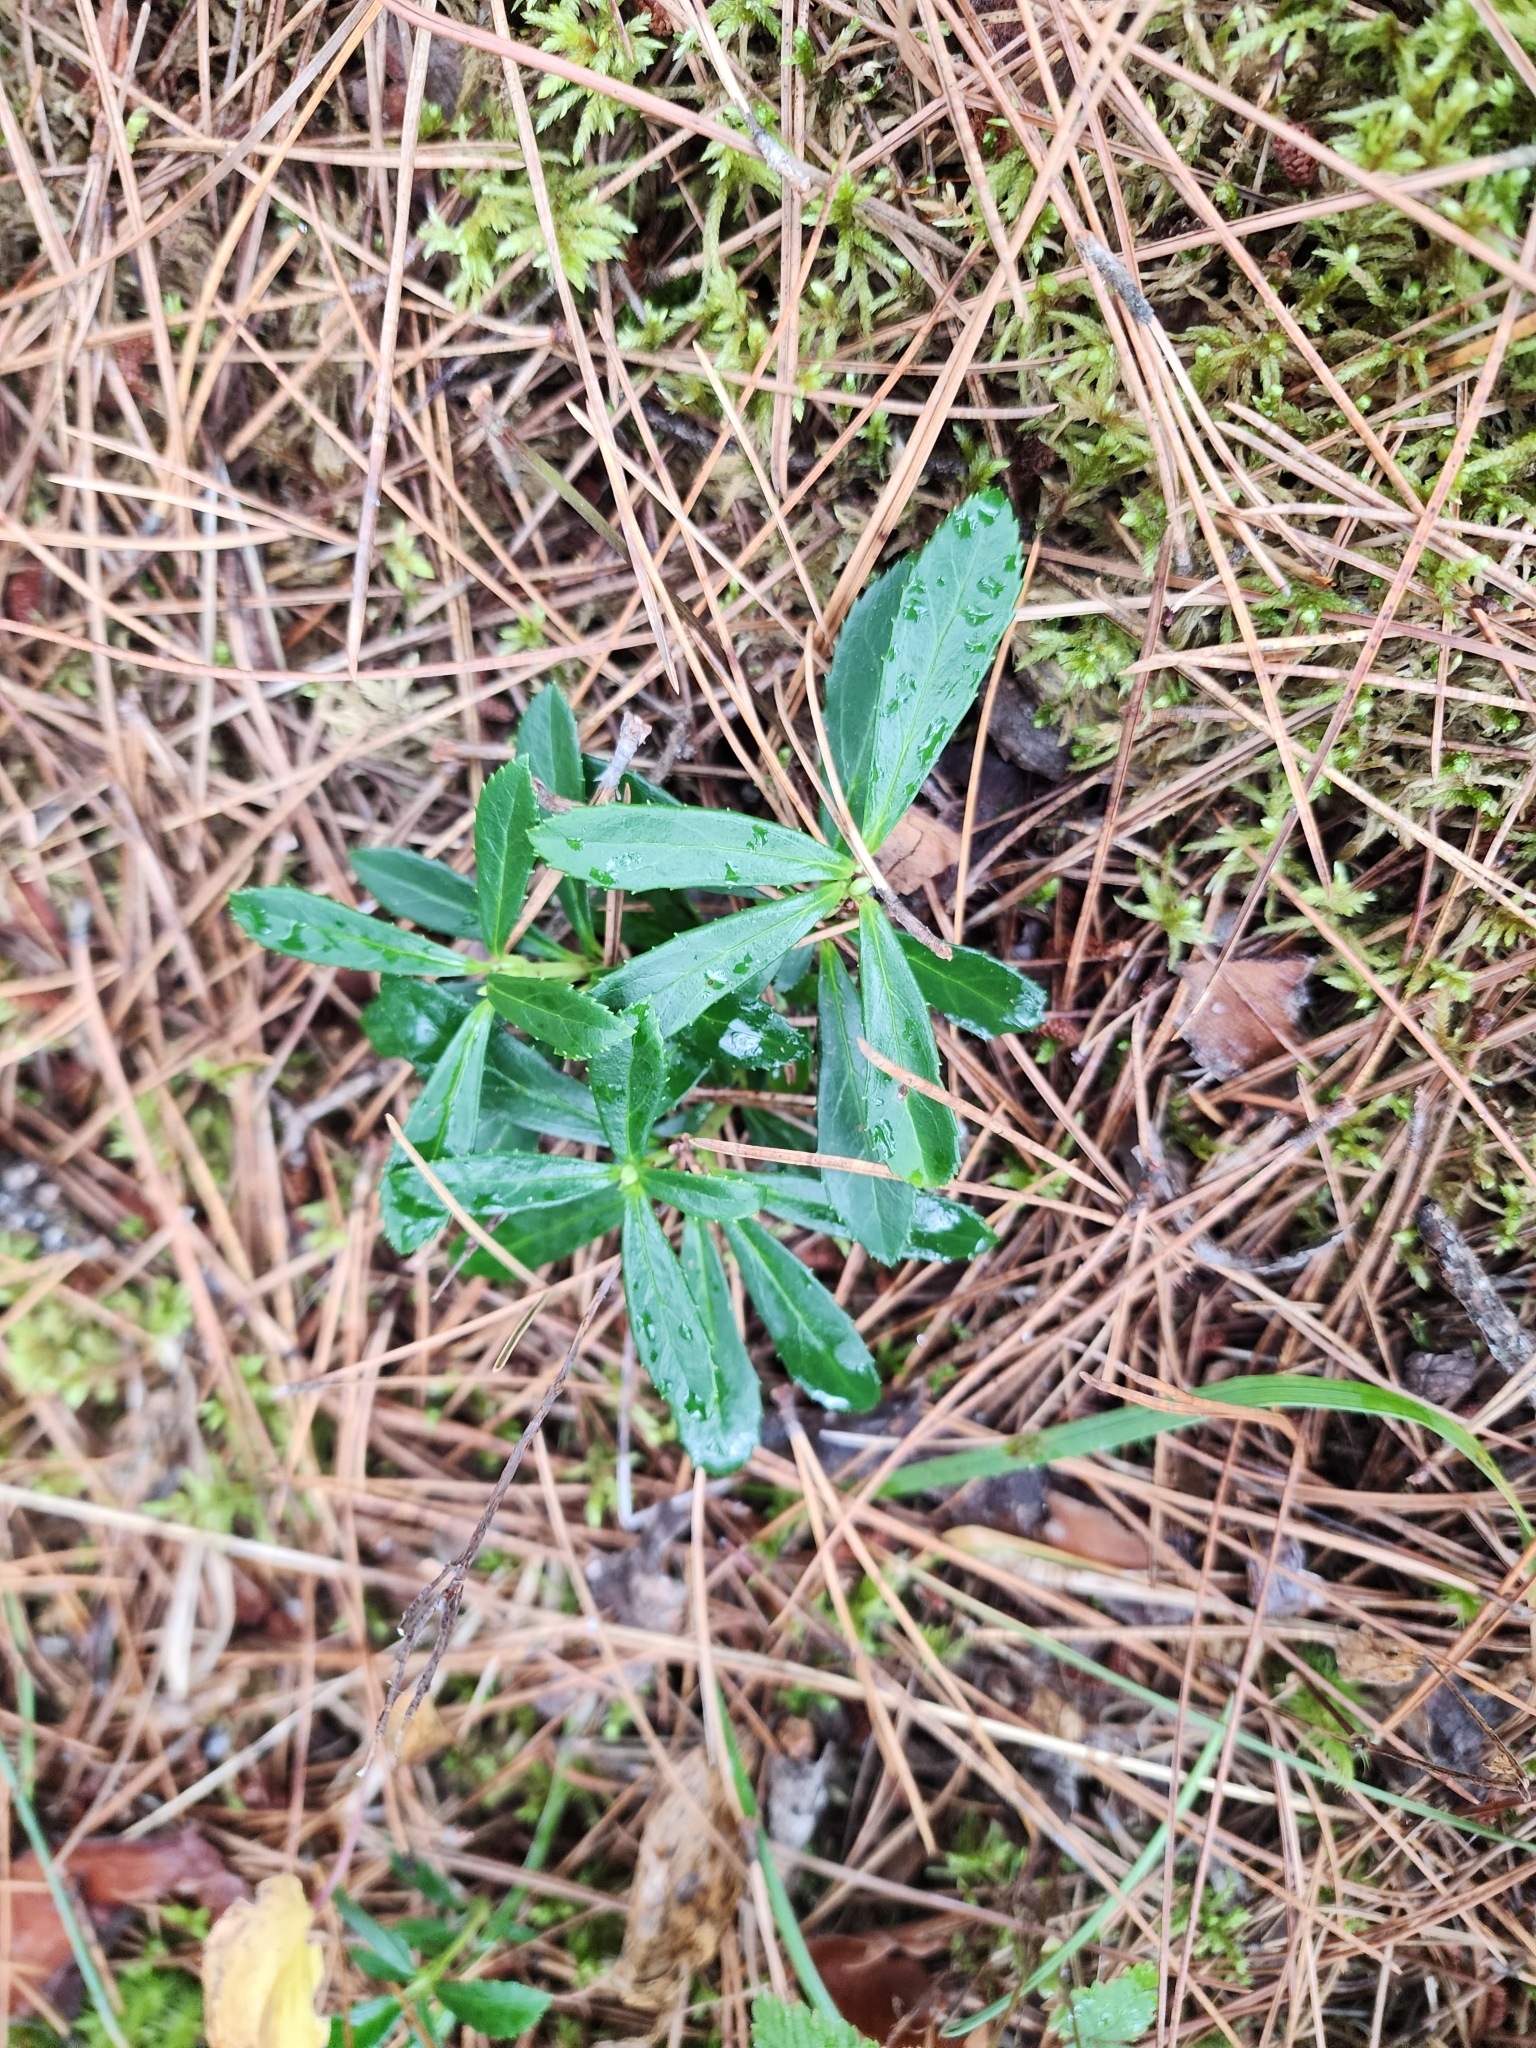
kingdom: Plantae
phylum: Tracheophyta
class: Magnoliopsida
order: Ericales
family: Ericaceae
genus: Chimaphila
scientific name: Chimaphila umbellata
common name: Pipsissewa
